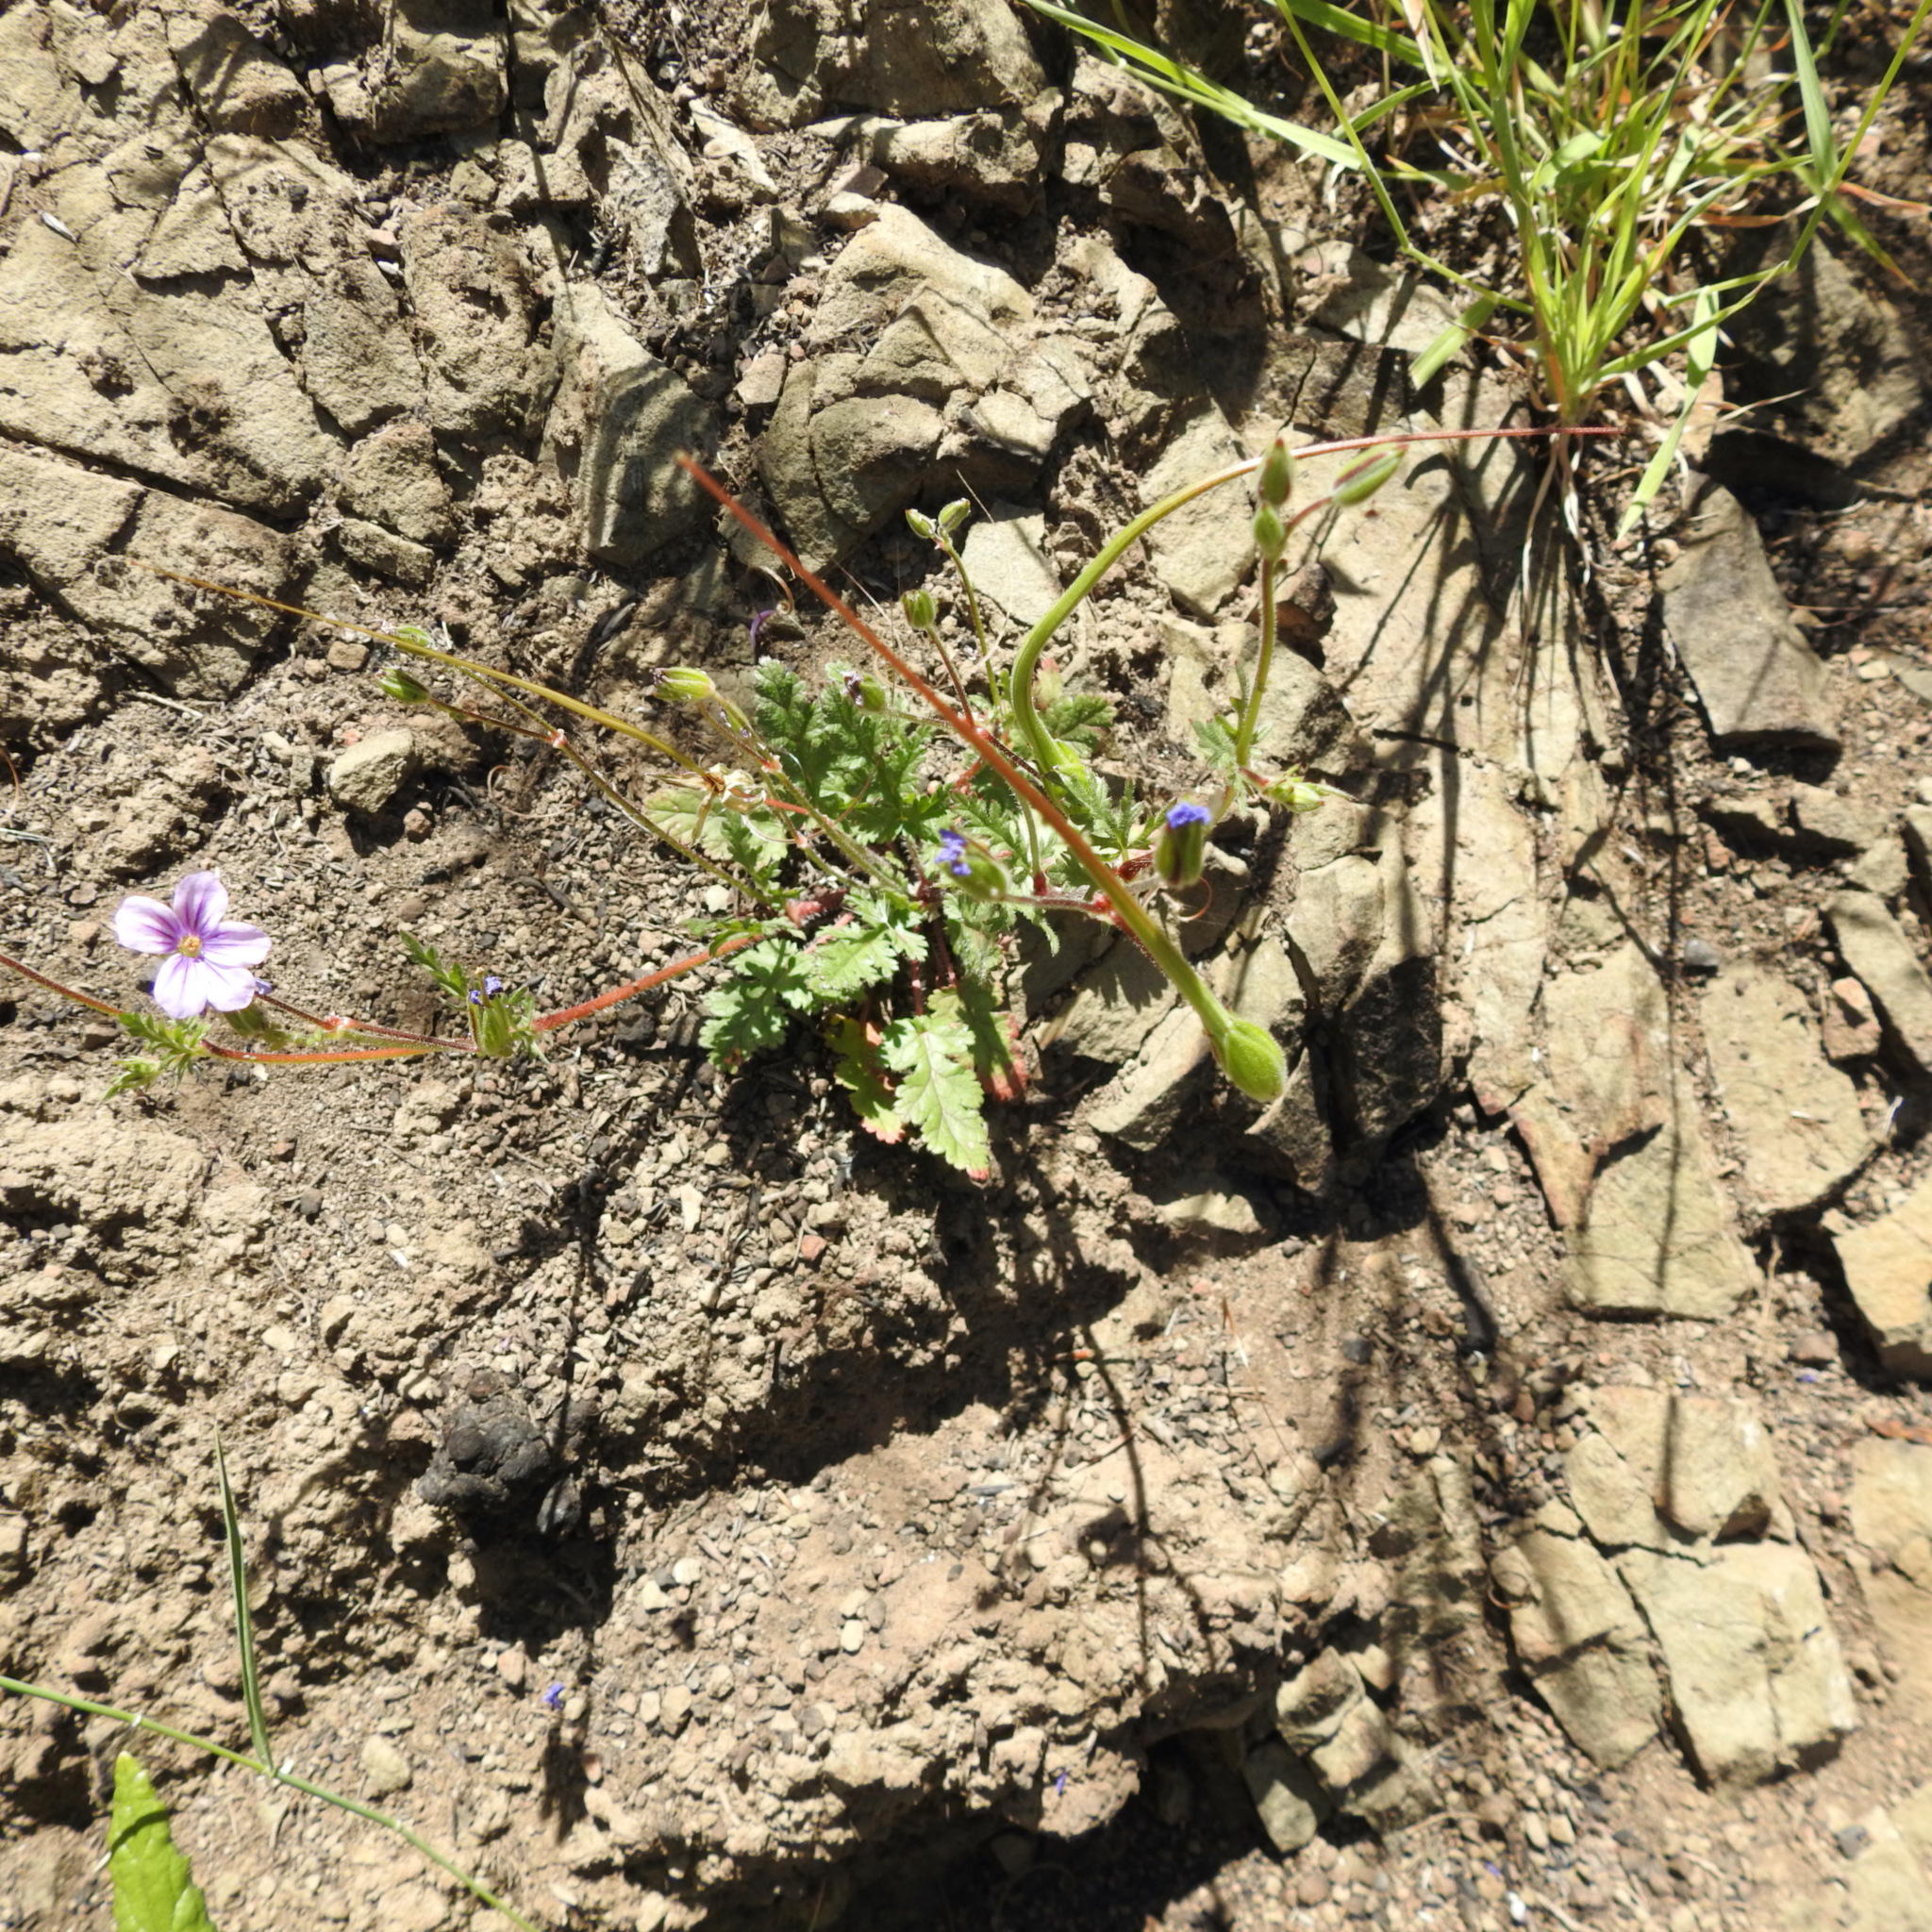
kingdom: Plantae
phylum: Tracheophyta
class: Magnoliopsida
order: Geraniales
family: Geraniaceae
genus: Erodium
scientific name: Erodium botrys
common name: Mediterranean stork's-bill
